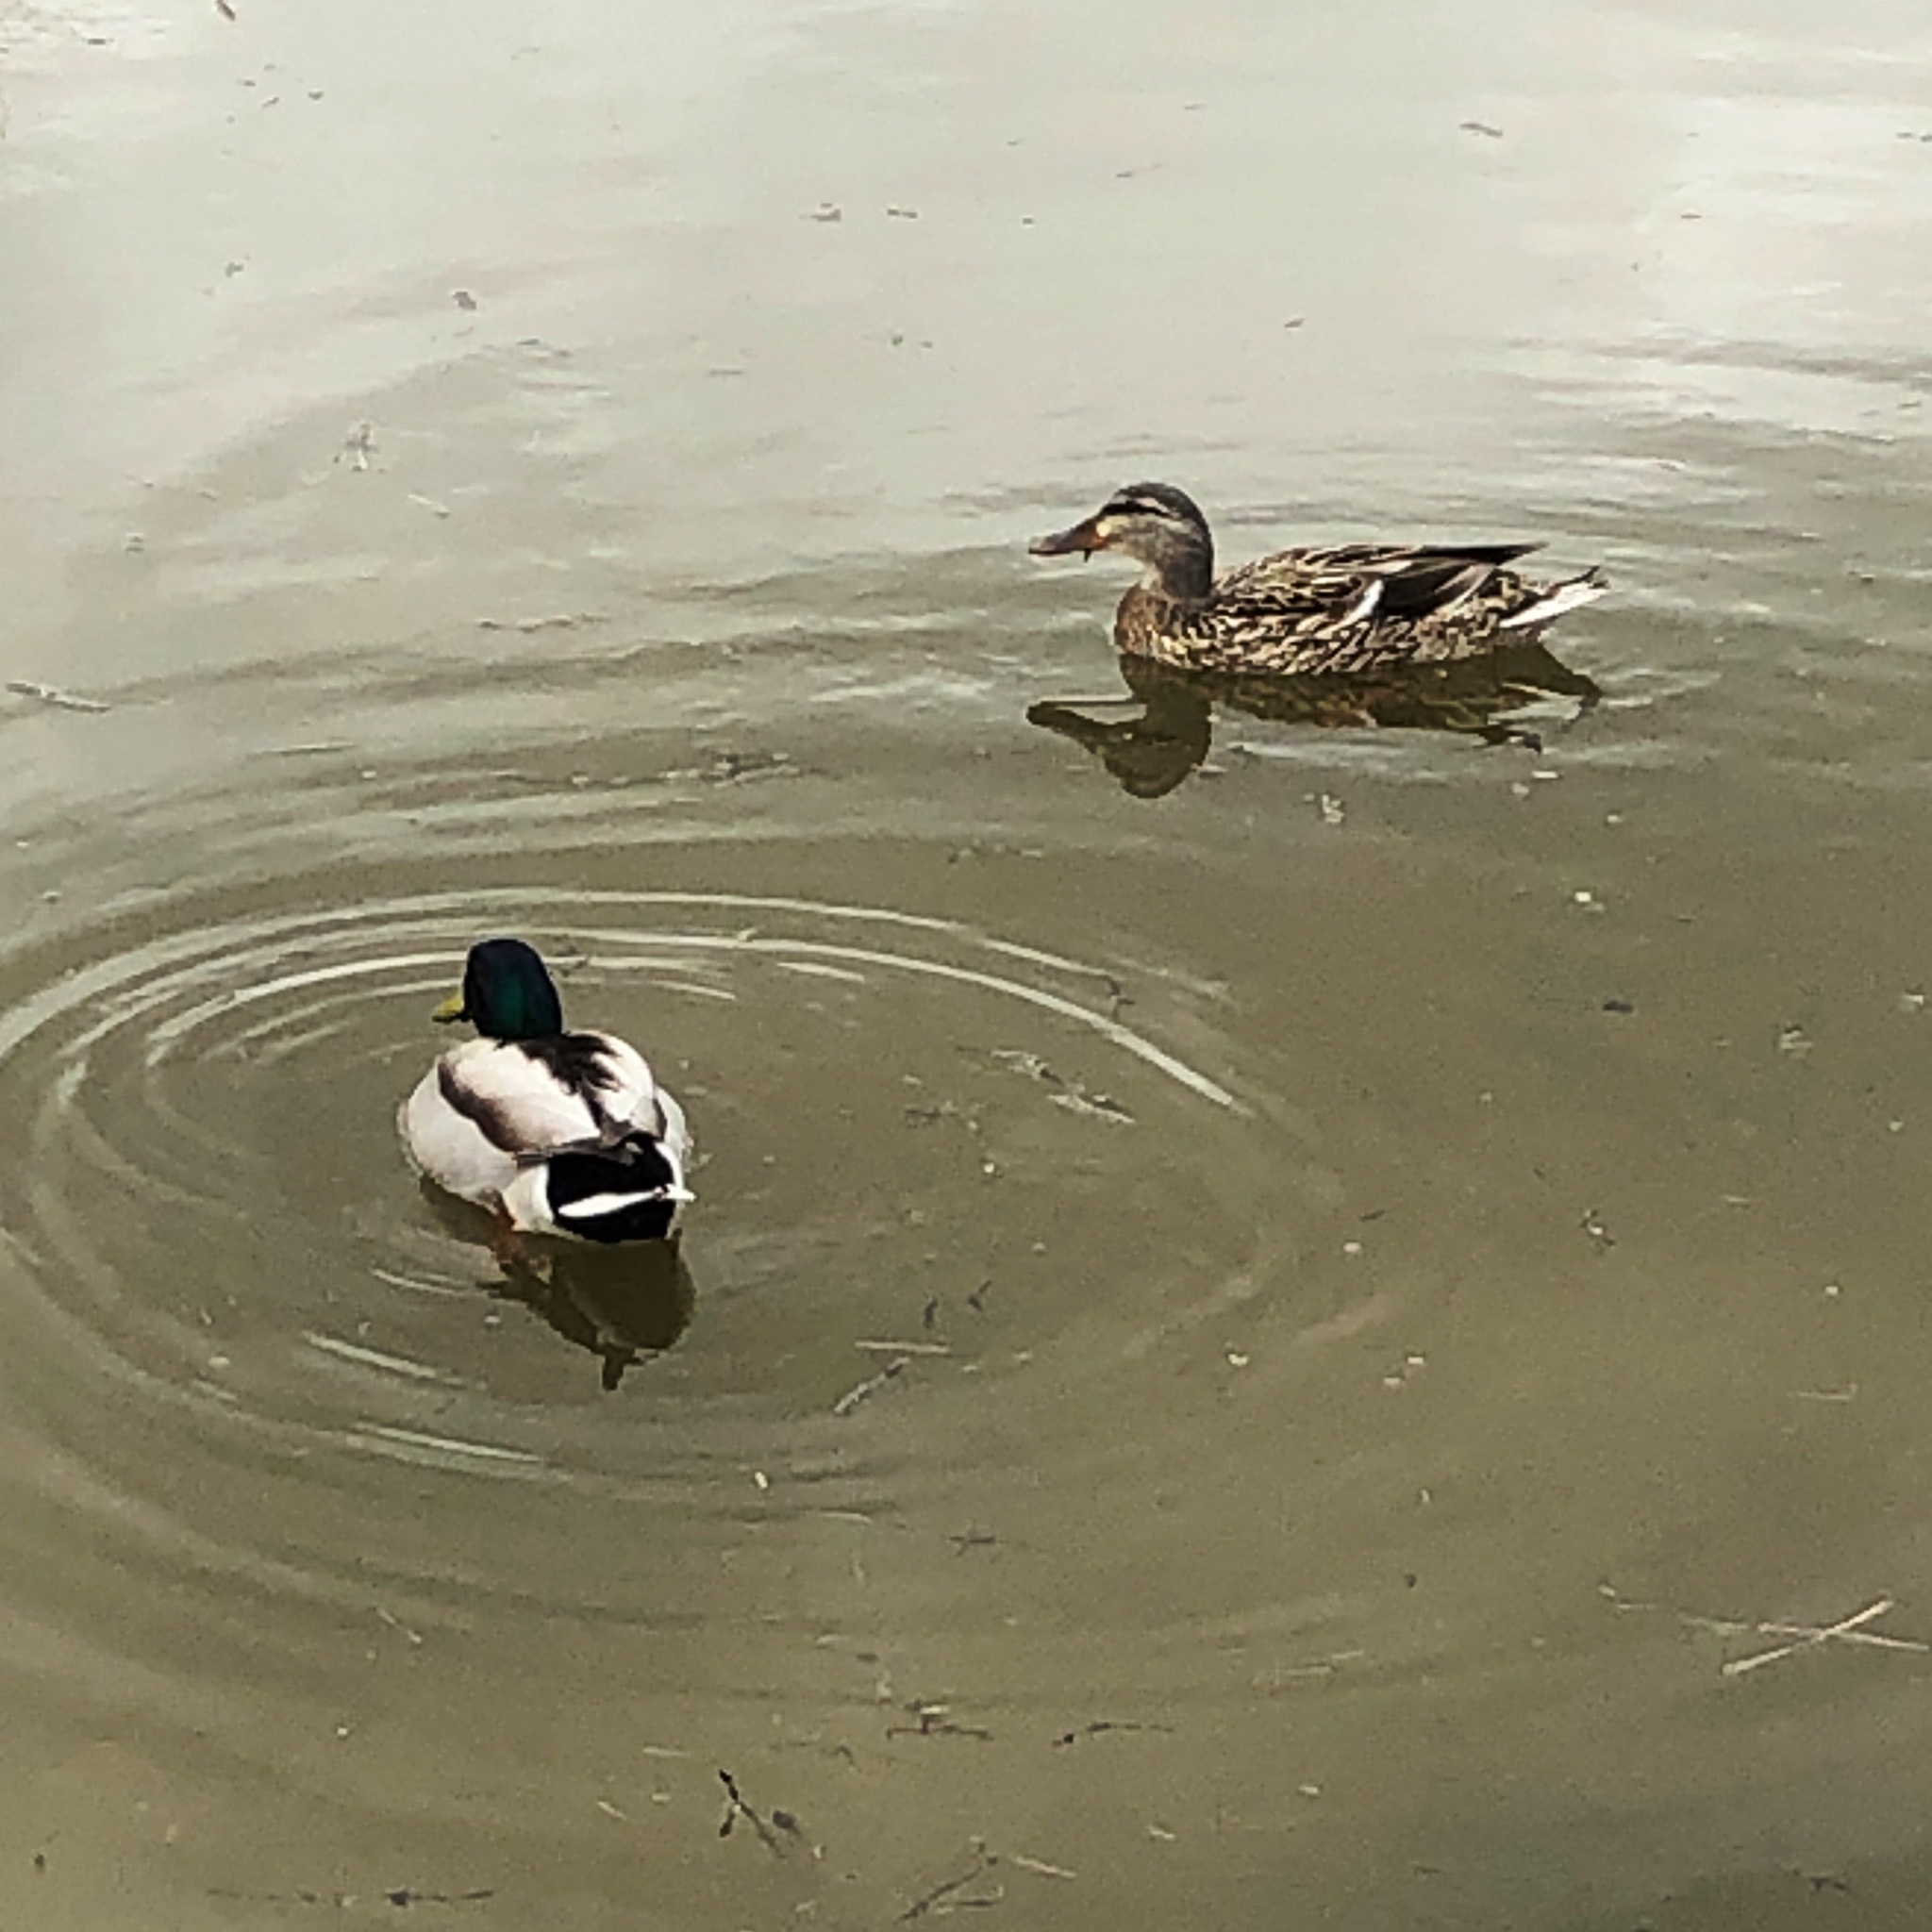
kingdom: Animalia
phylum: Chordata
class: Aves
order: Anseriformes
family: Anatidae
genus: Anas
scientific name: Anas platyrhynchos
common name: Mallard
